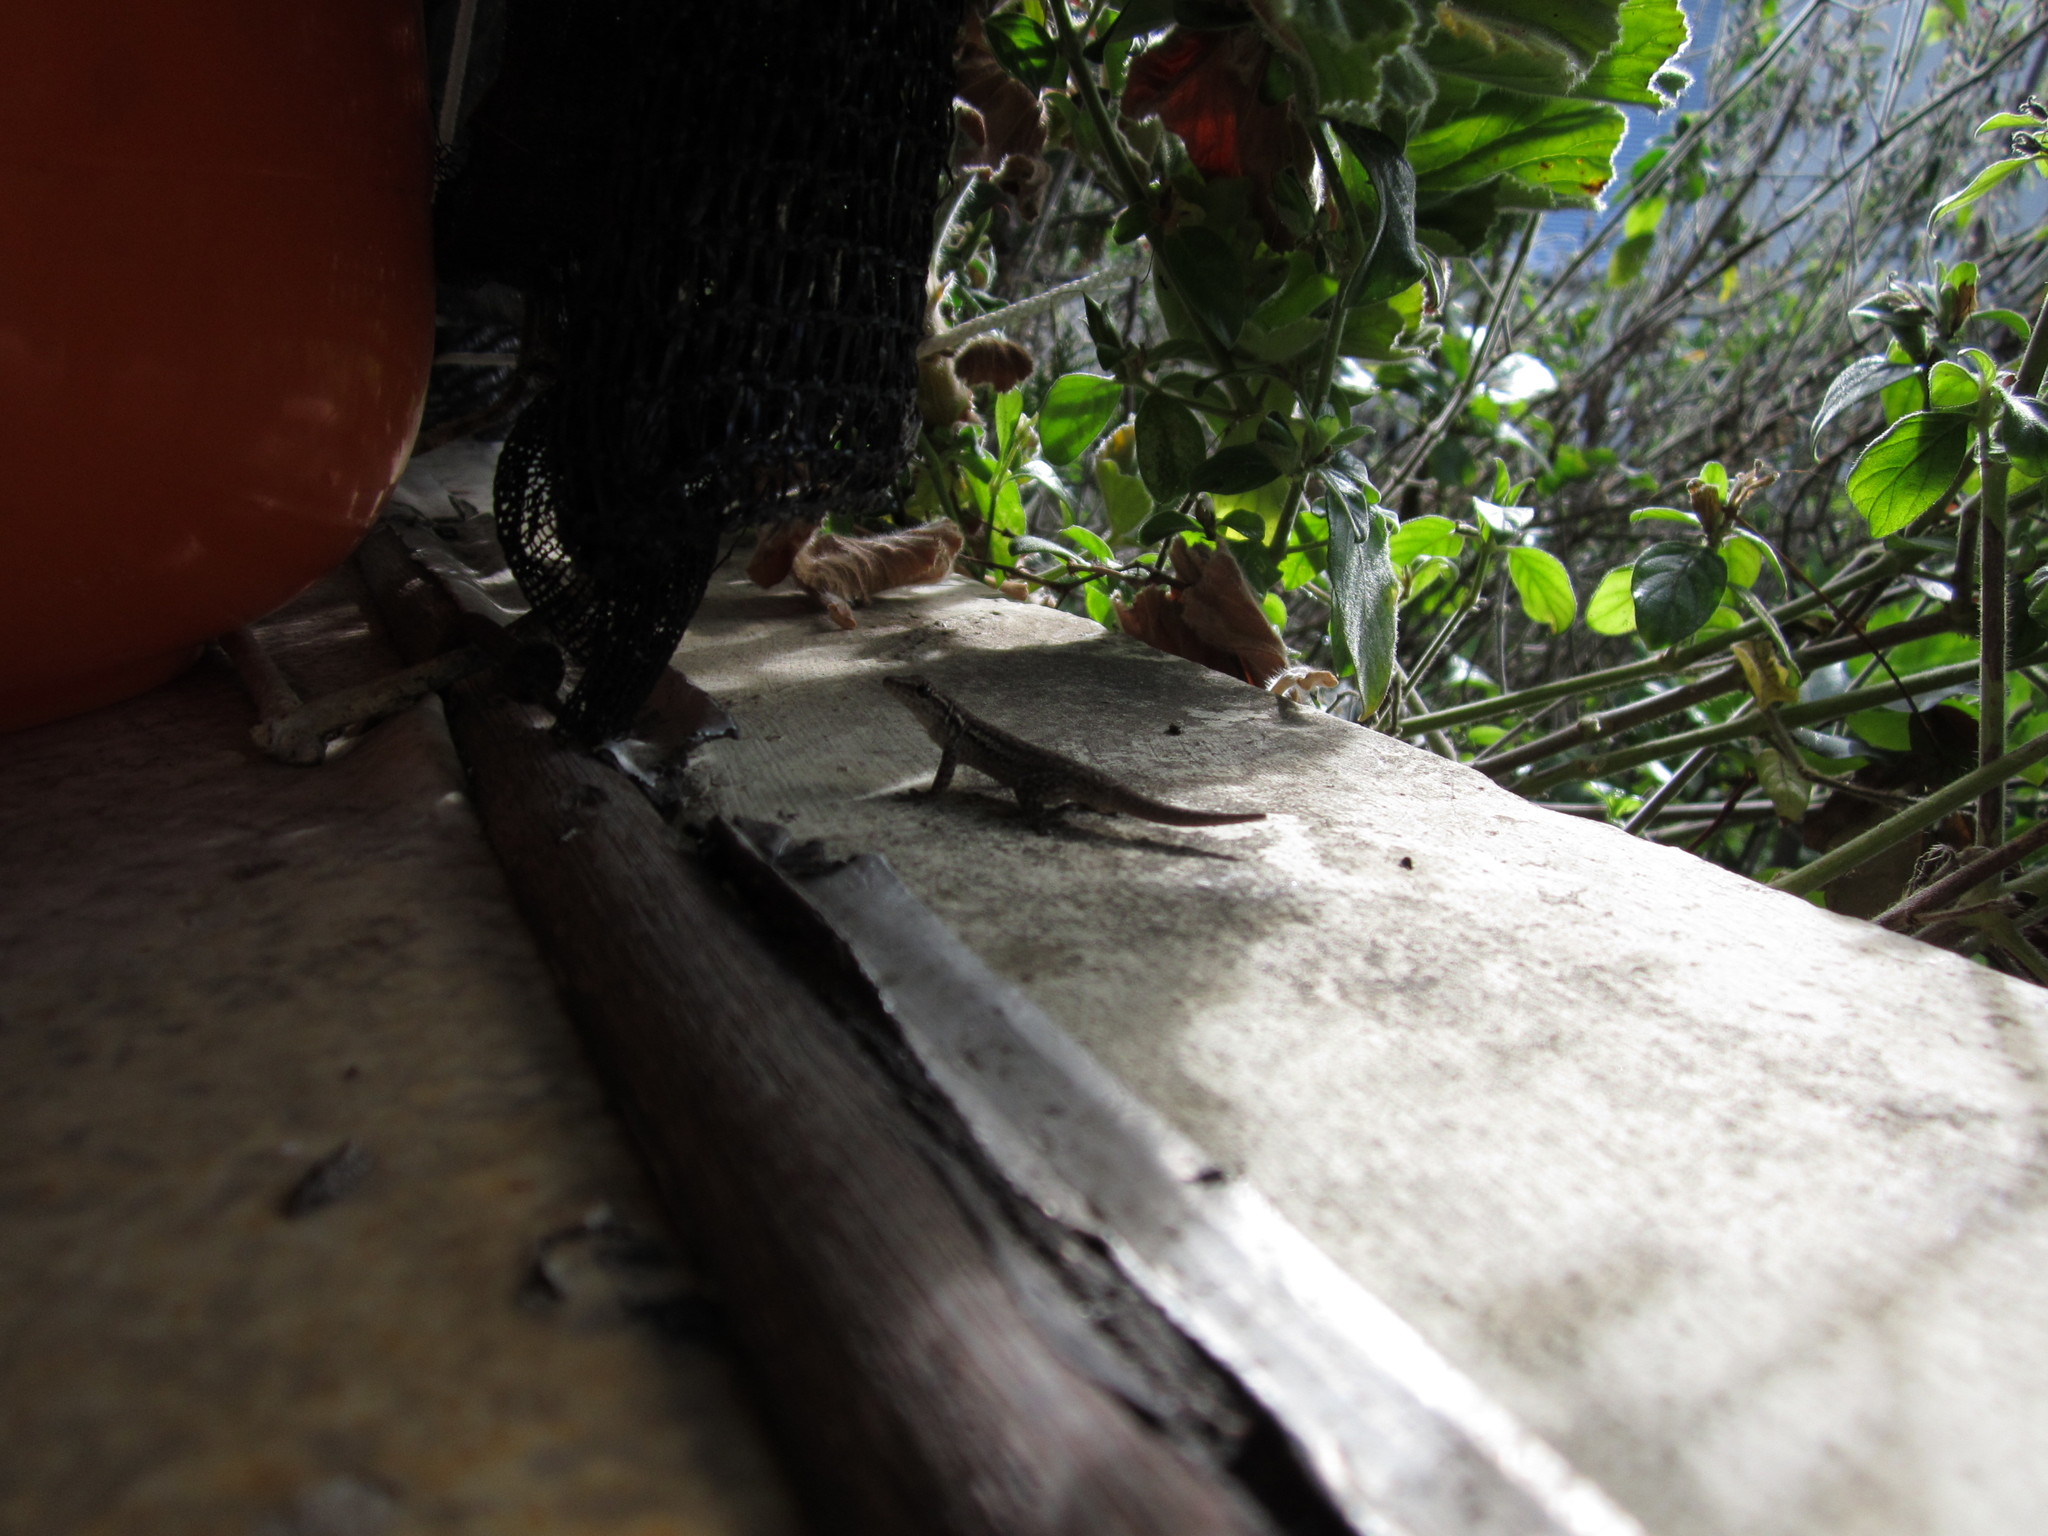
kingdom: Animalia
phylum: Chordata
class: Squamata
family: Gekkonidae
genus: Lygodactylus
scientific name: Lygodactylus capensis
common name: Cape dwarf gecko
